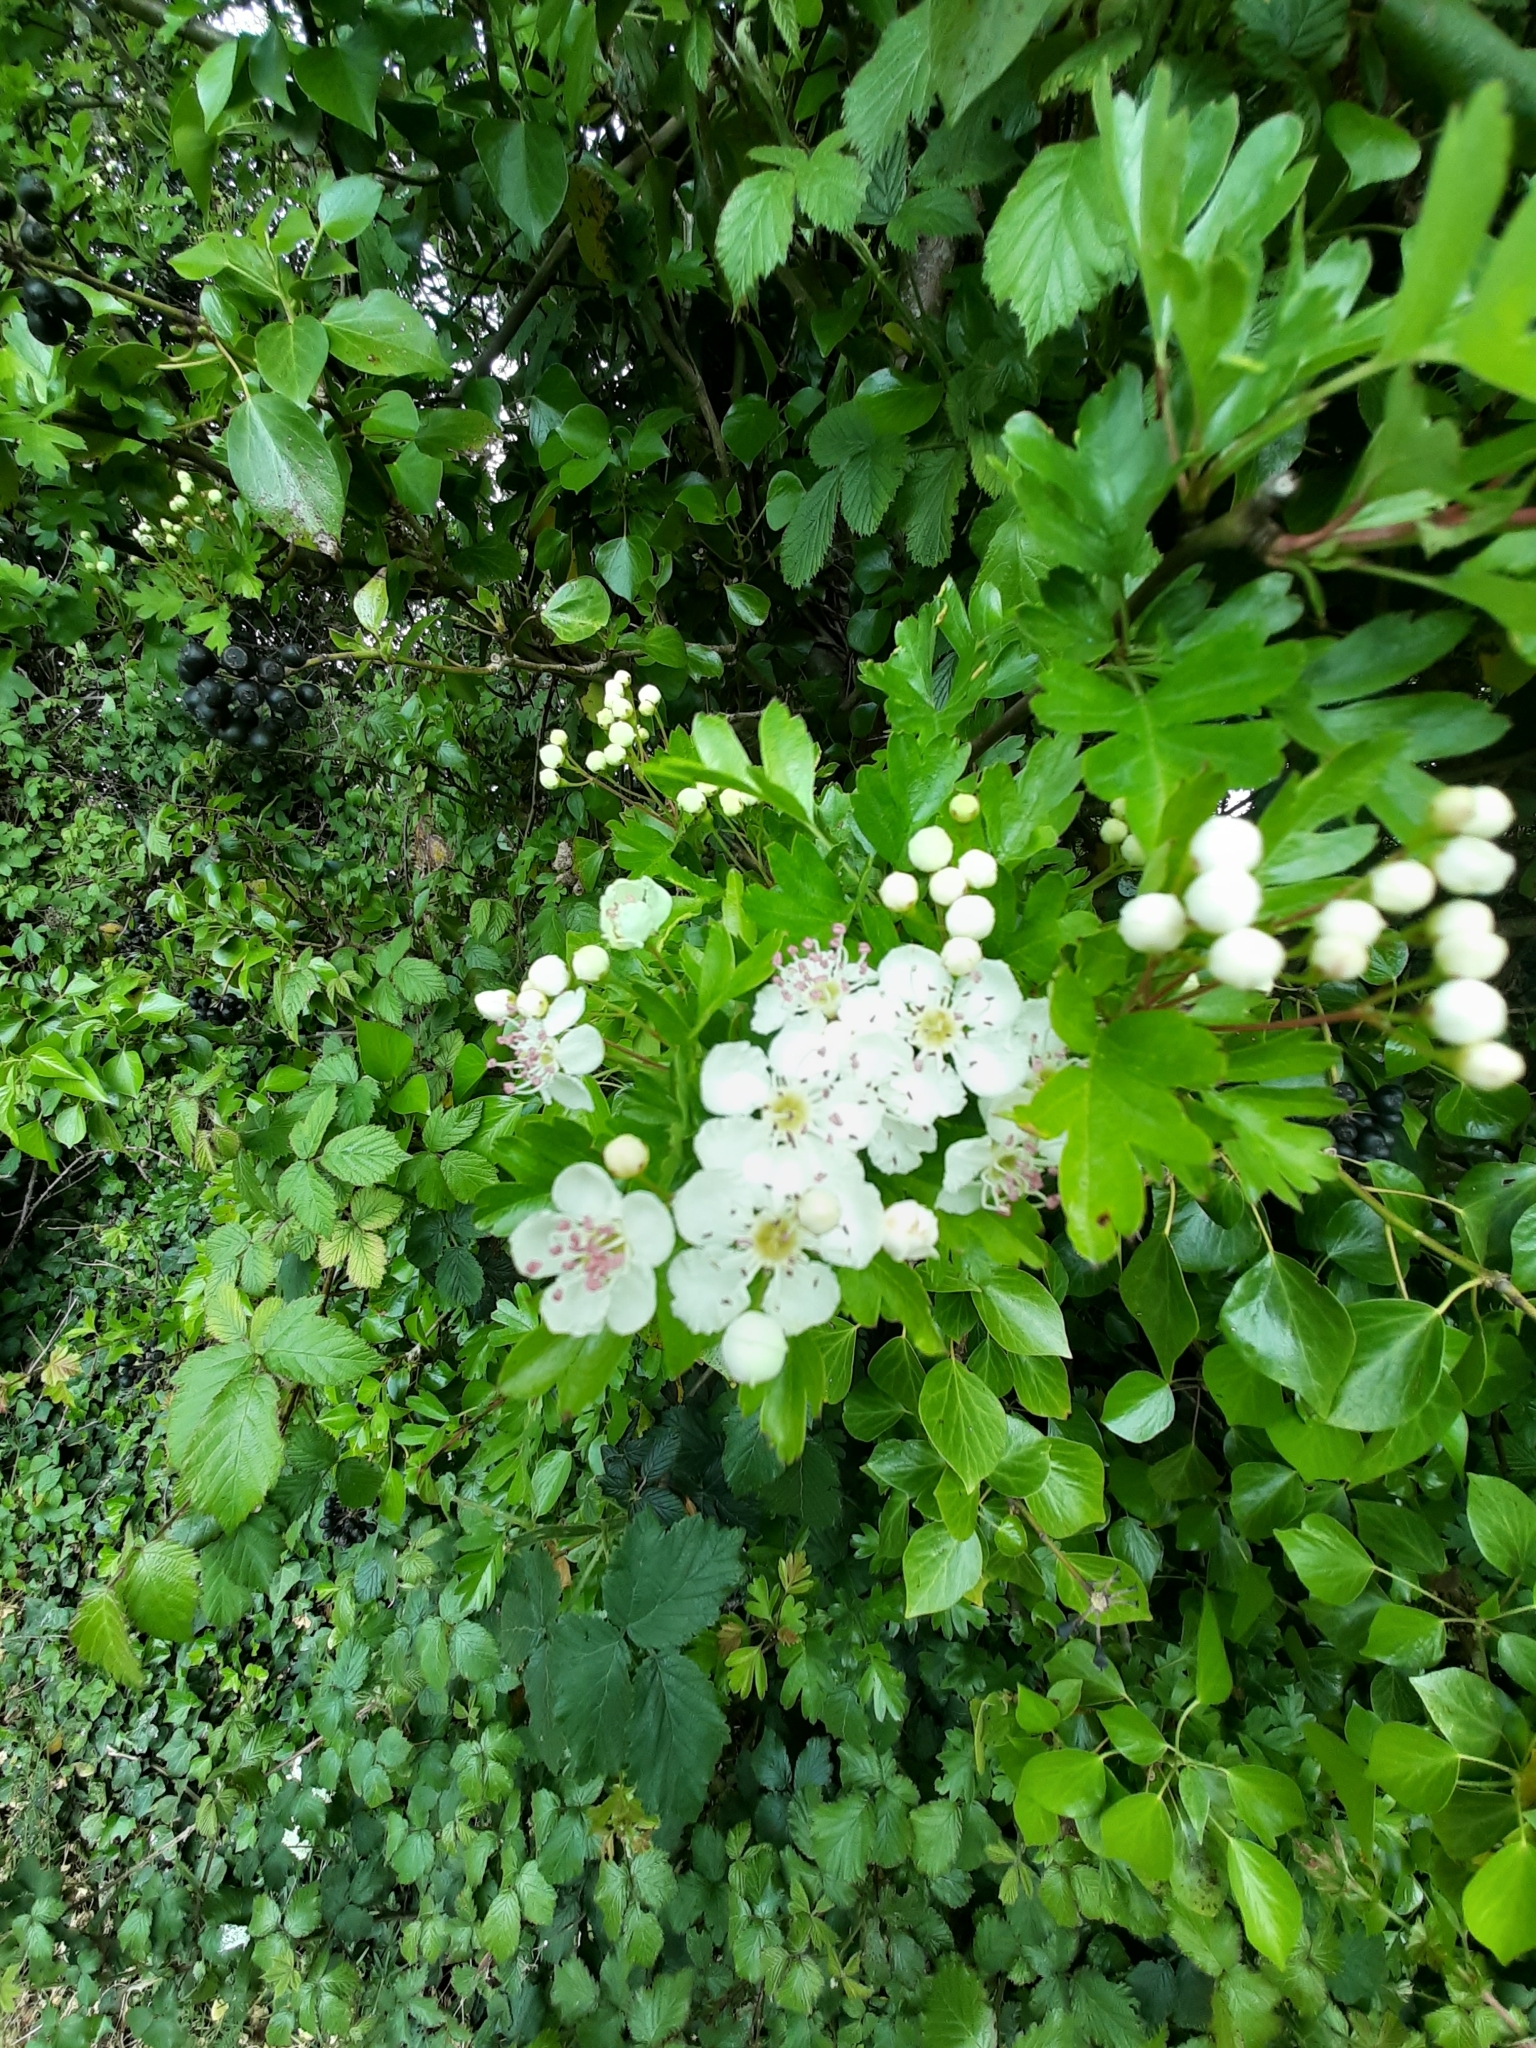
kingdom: Plantae
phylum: Tracheophyta
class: Magnoliopsida
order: Rosales
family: Rosaceae
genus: Crataegus
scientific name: Crataegus monogyna
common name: Hawthorn
